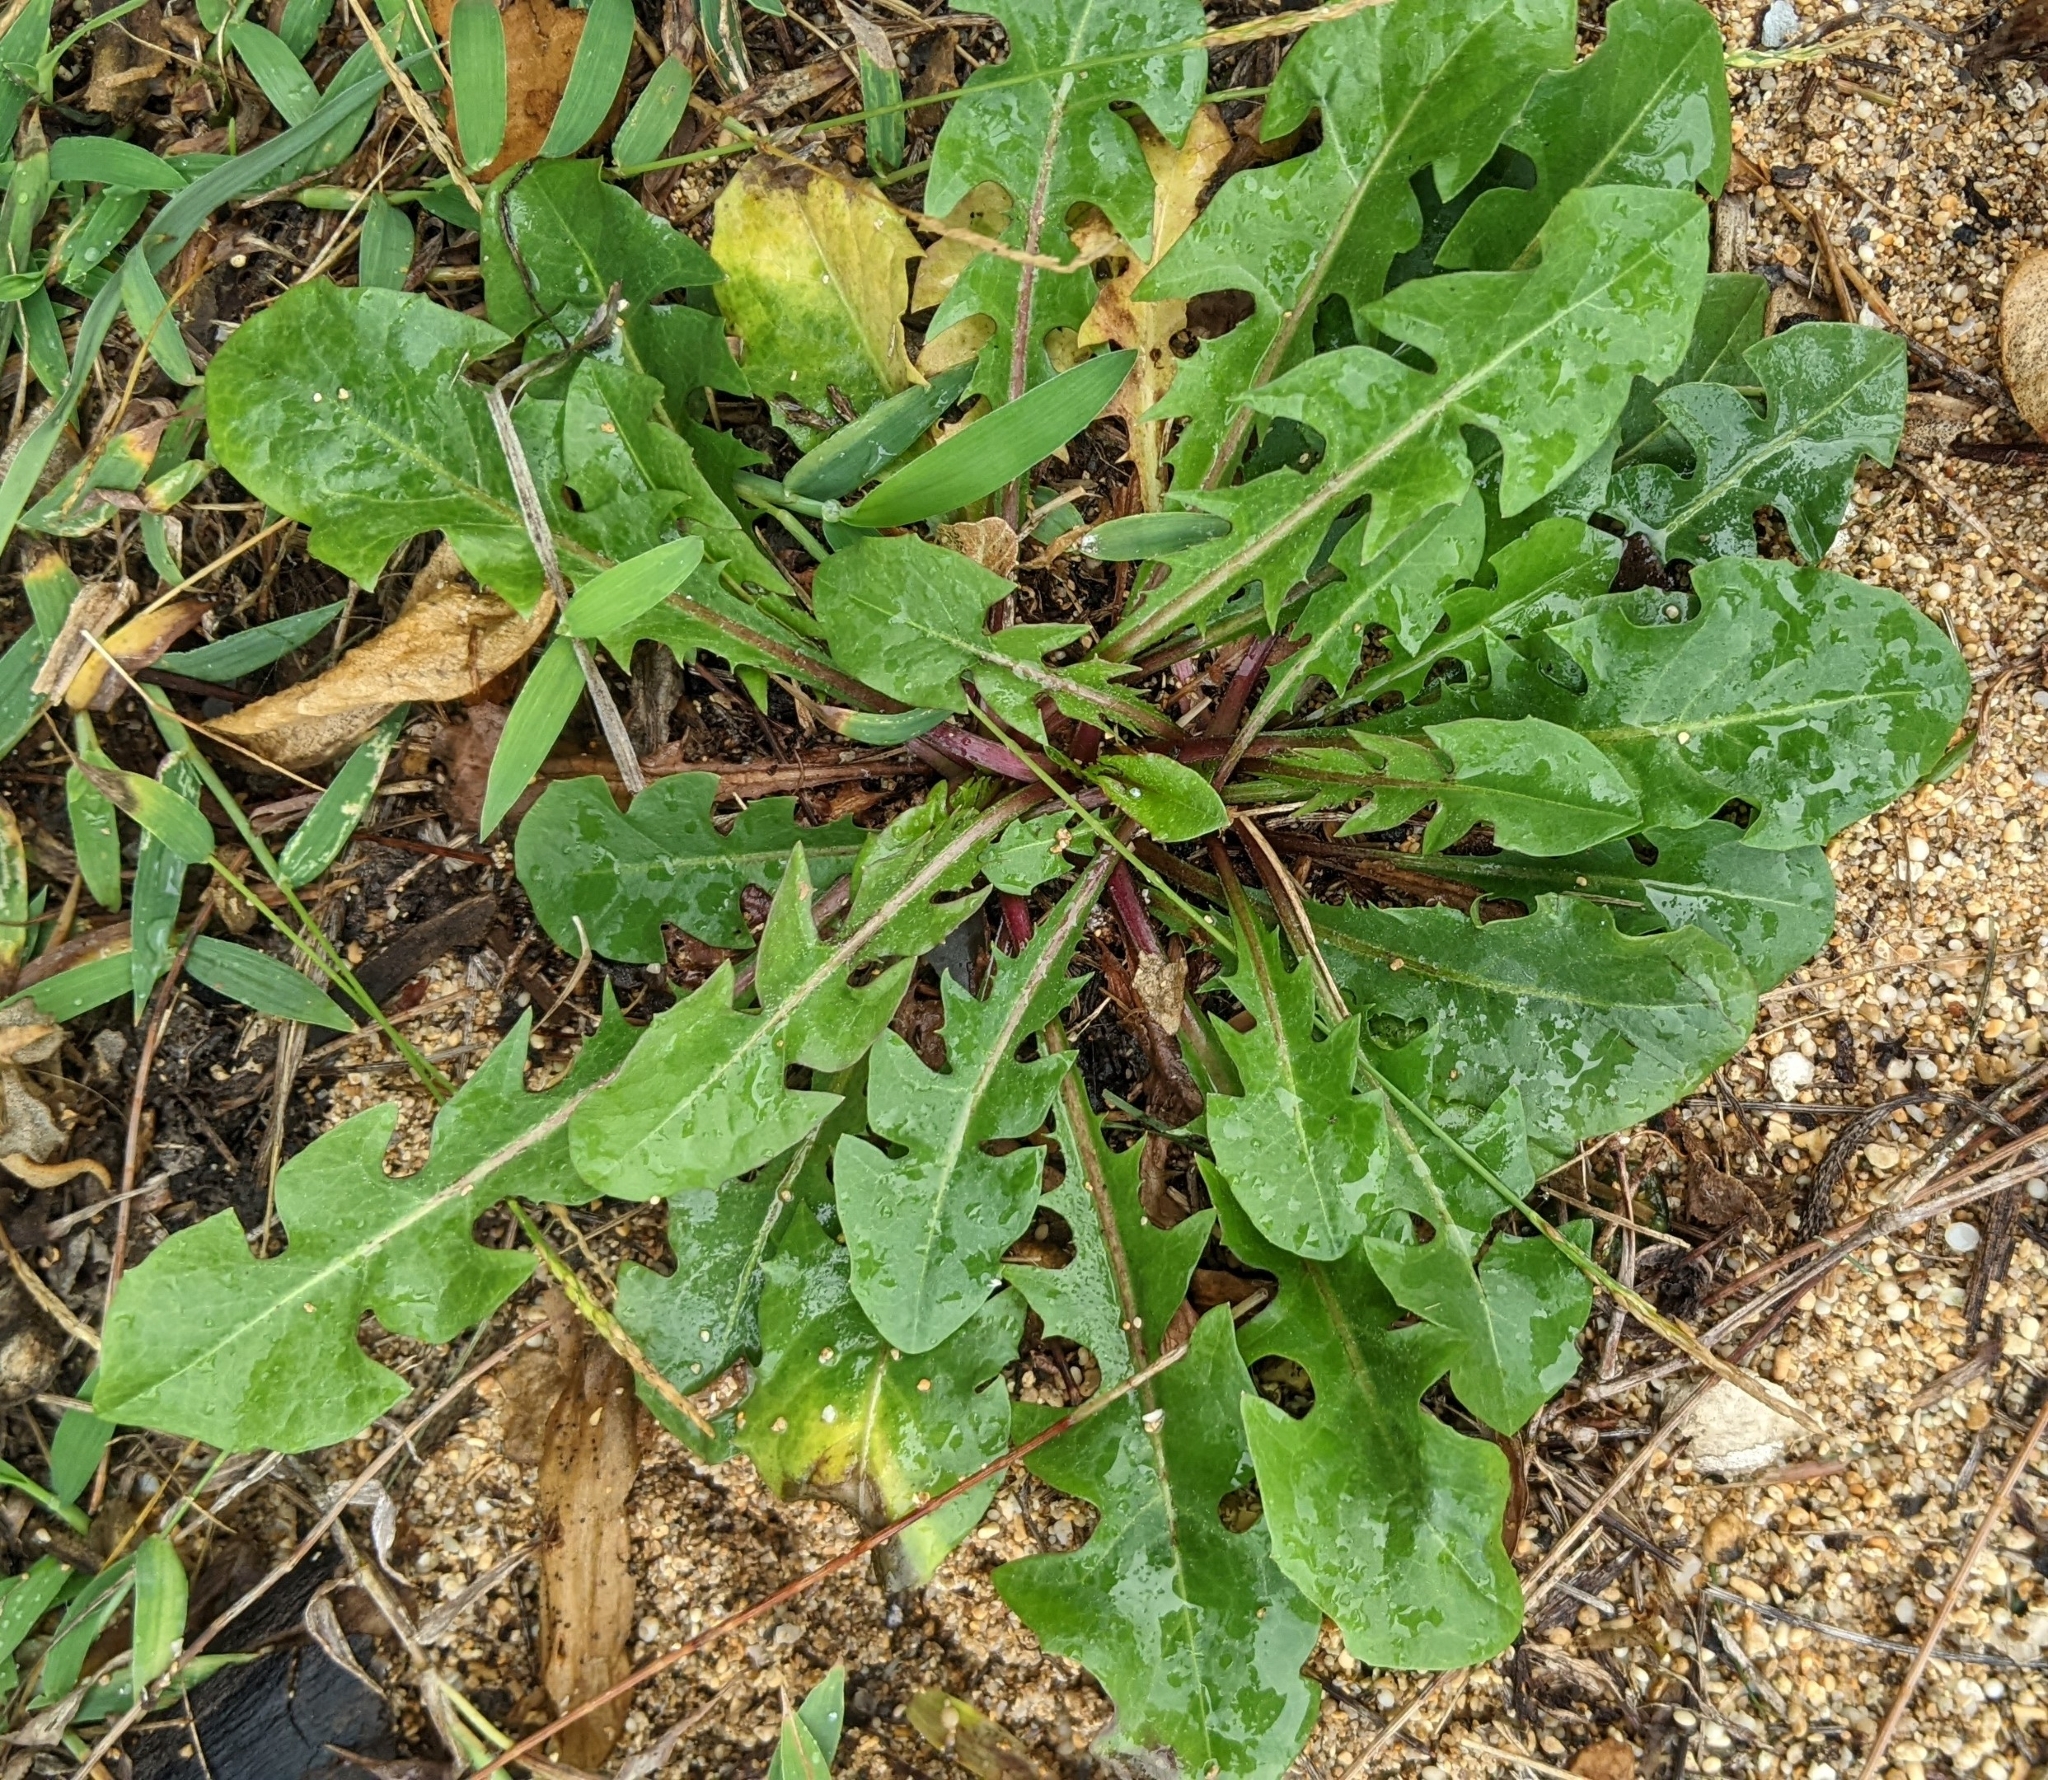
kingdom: Plantae
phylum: Tracheophyta
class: Magnoliopsida
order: Asterales
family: Asteraceae
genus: Taraxacum
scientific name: Taraxacum officinale
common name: Common dandelion
